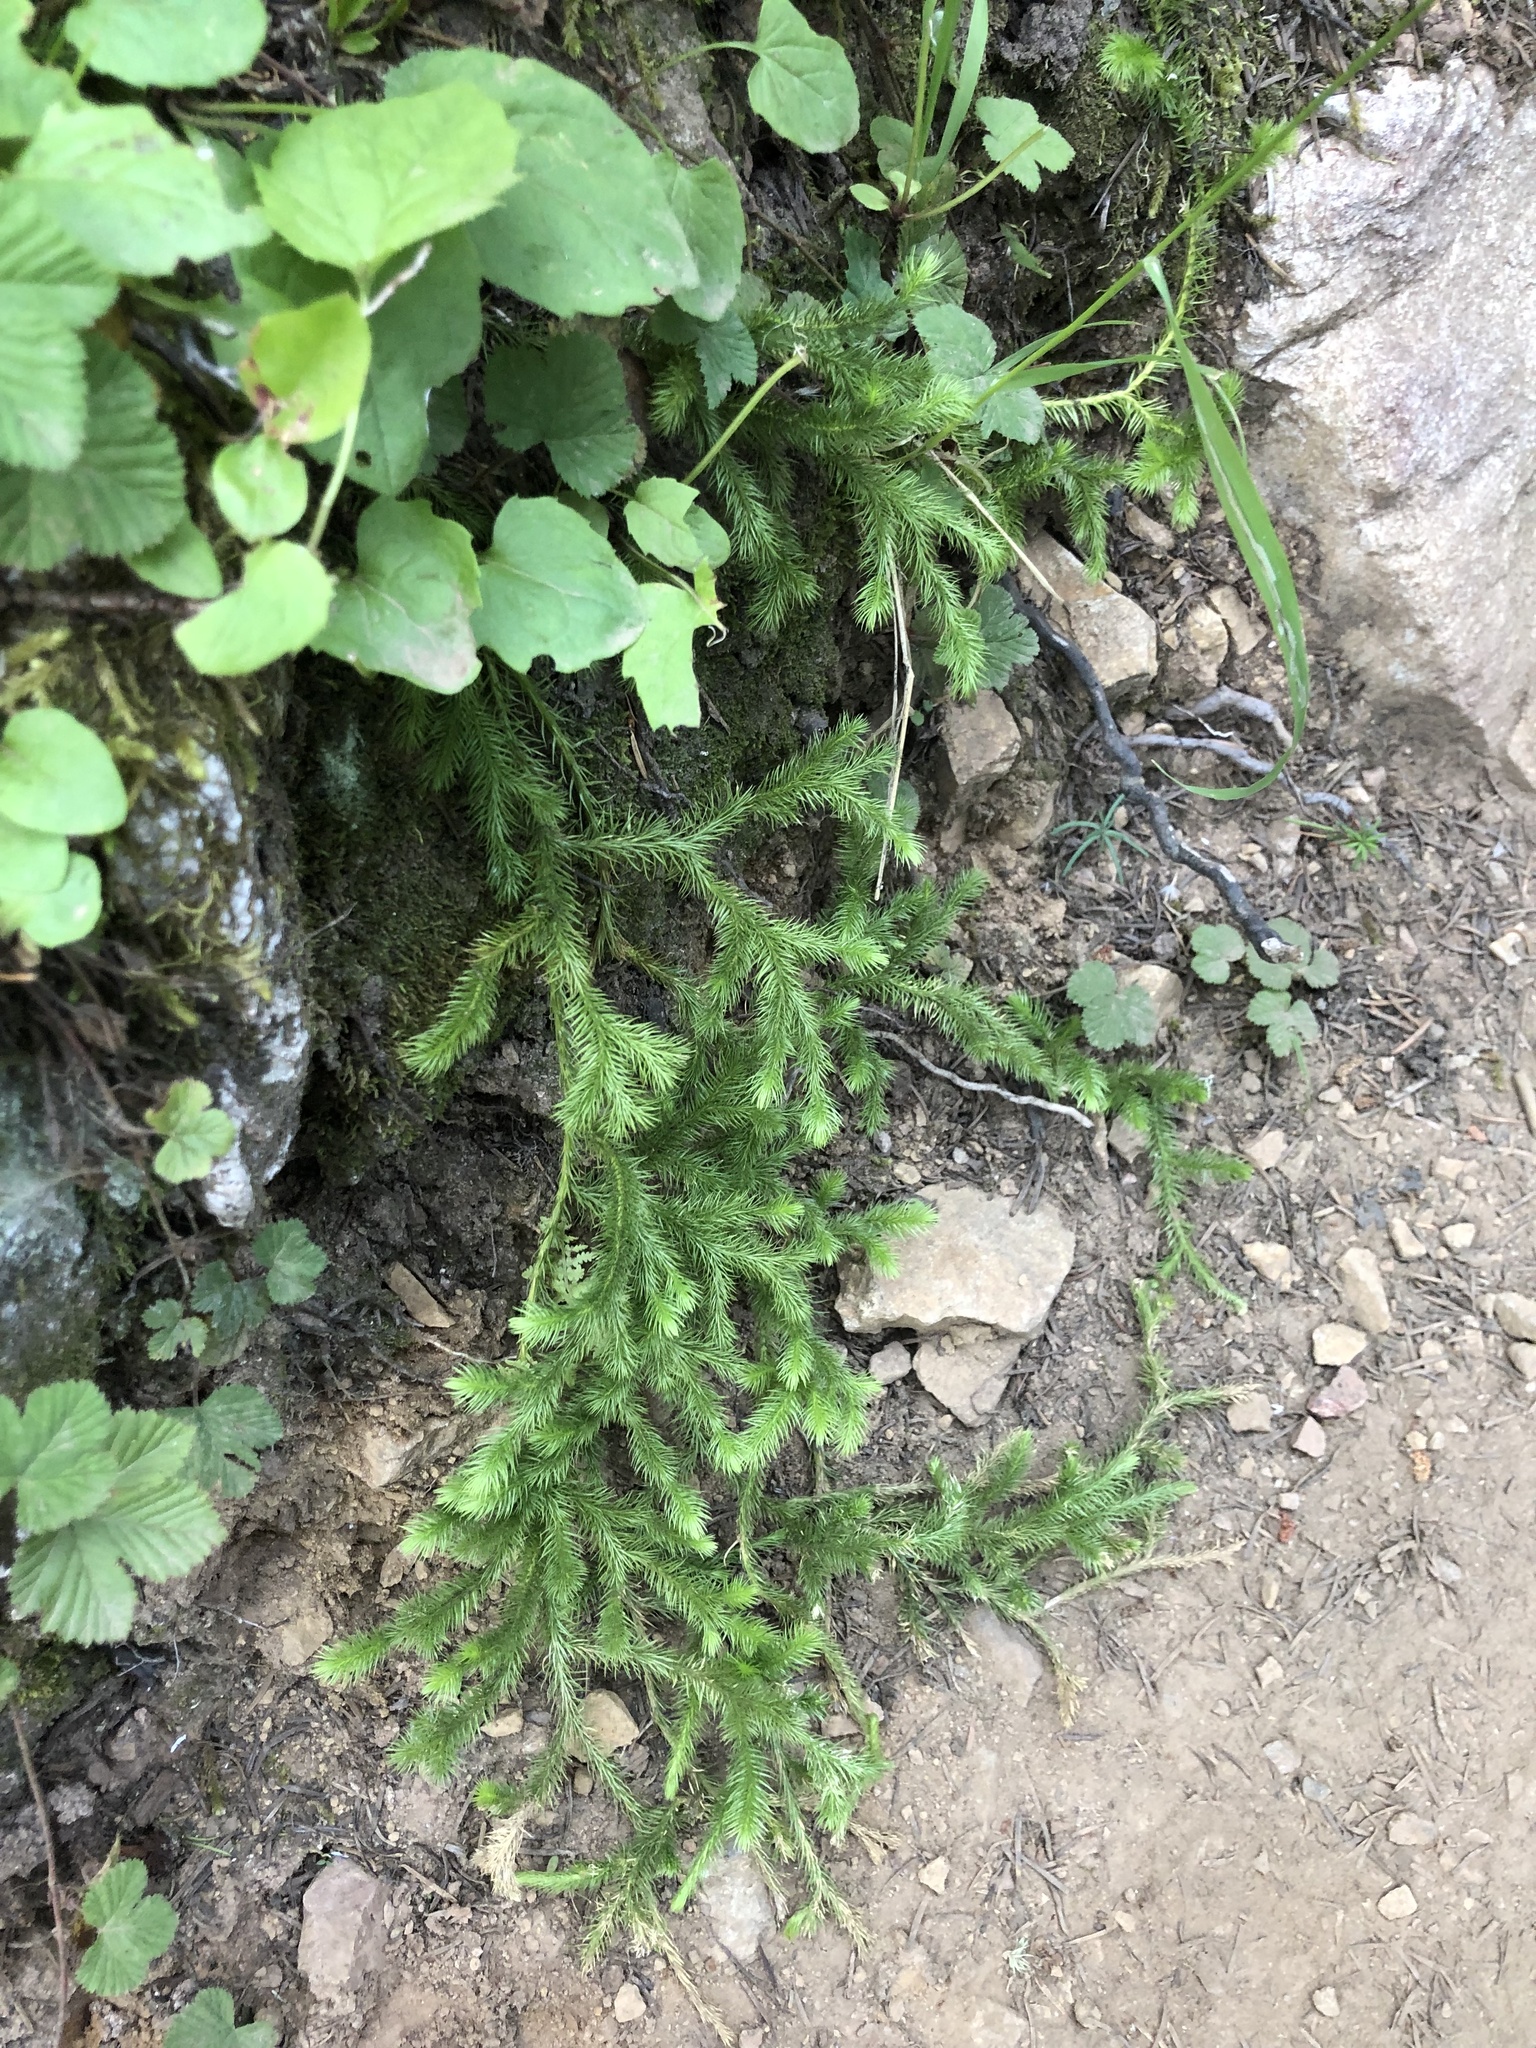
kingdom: Plantae
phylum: Tracheophyta
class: Lycopodiopsida
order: Lycopodiales
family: Lycopodiaceae
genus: Lycopodium
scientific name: Lycopodium clavatum
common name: Stag's-horn clubmoss
